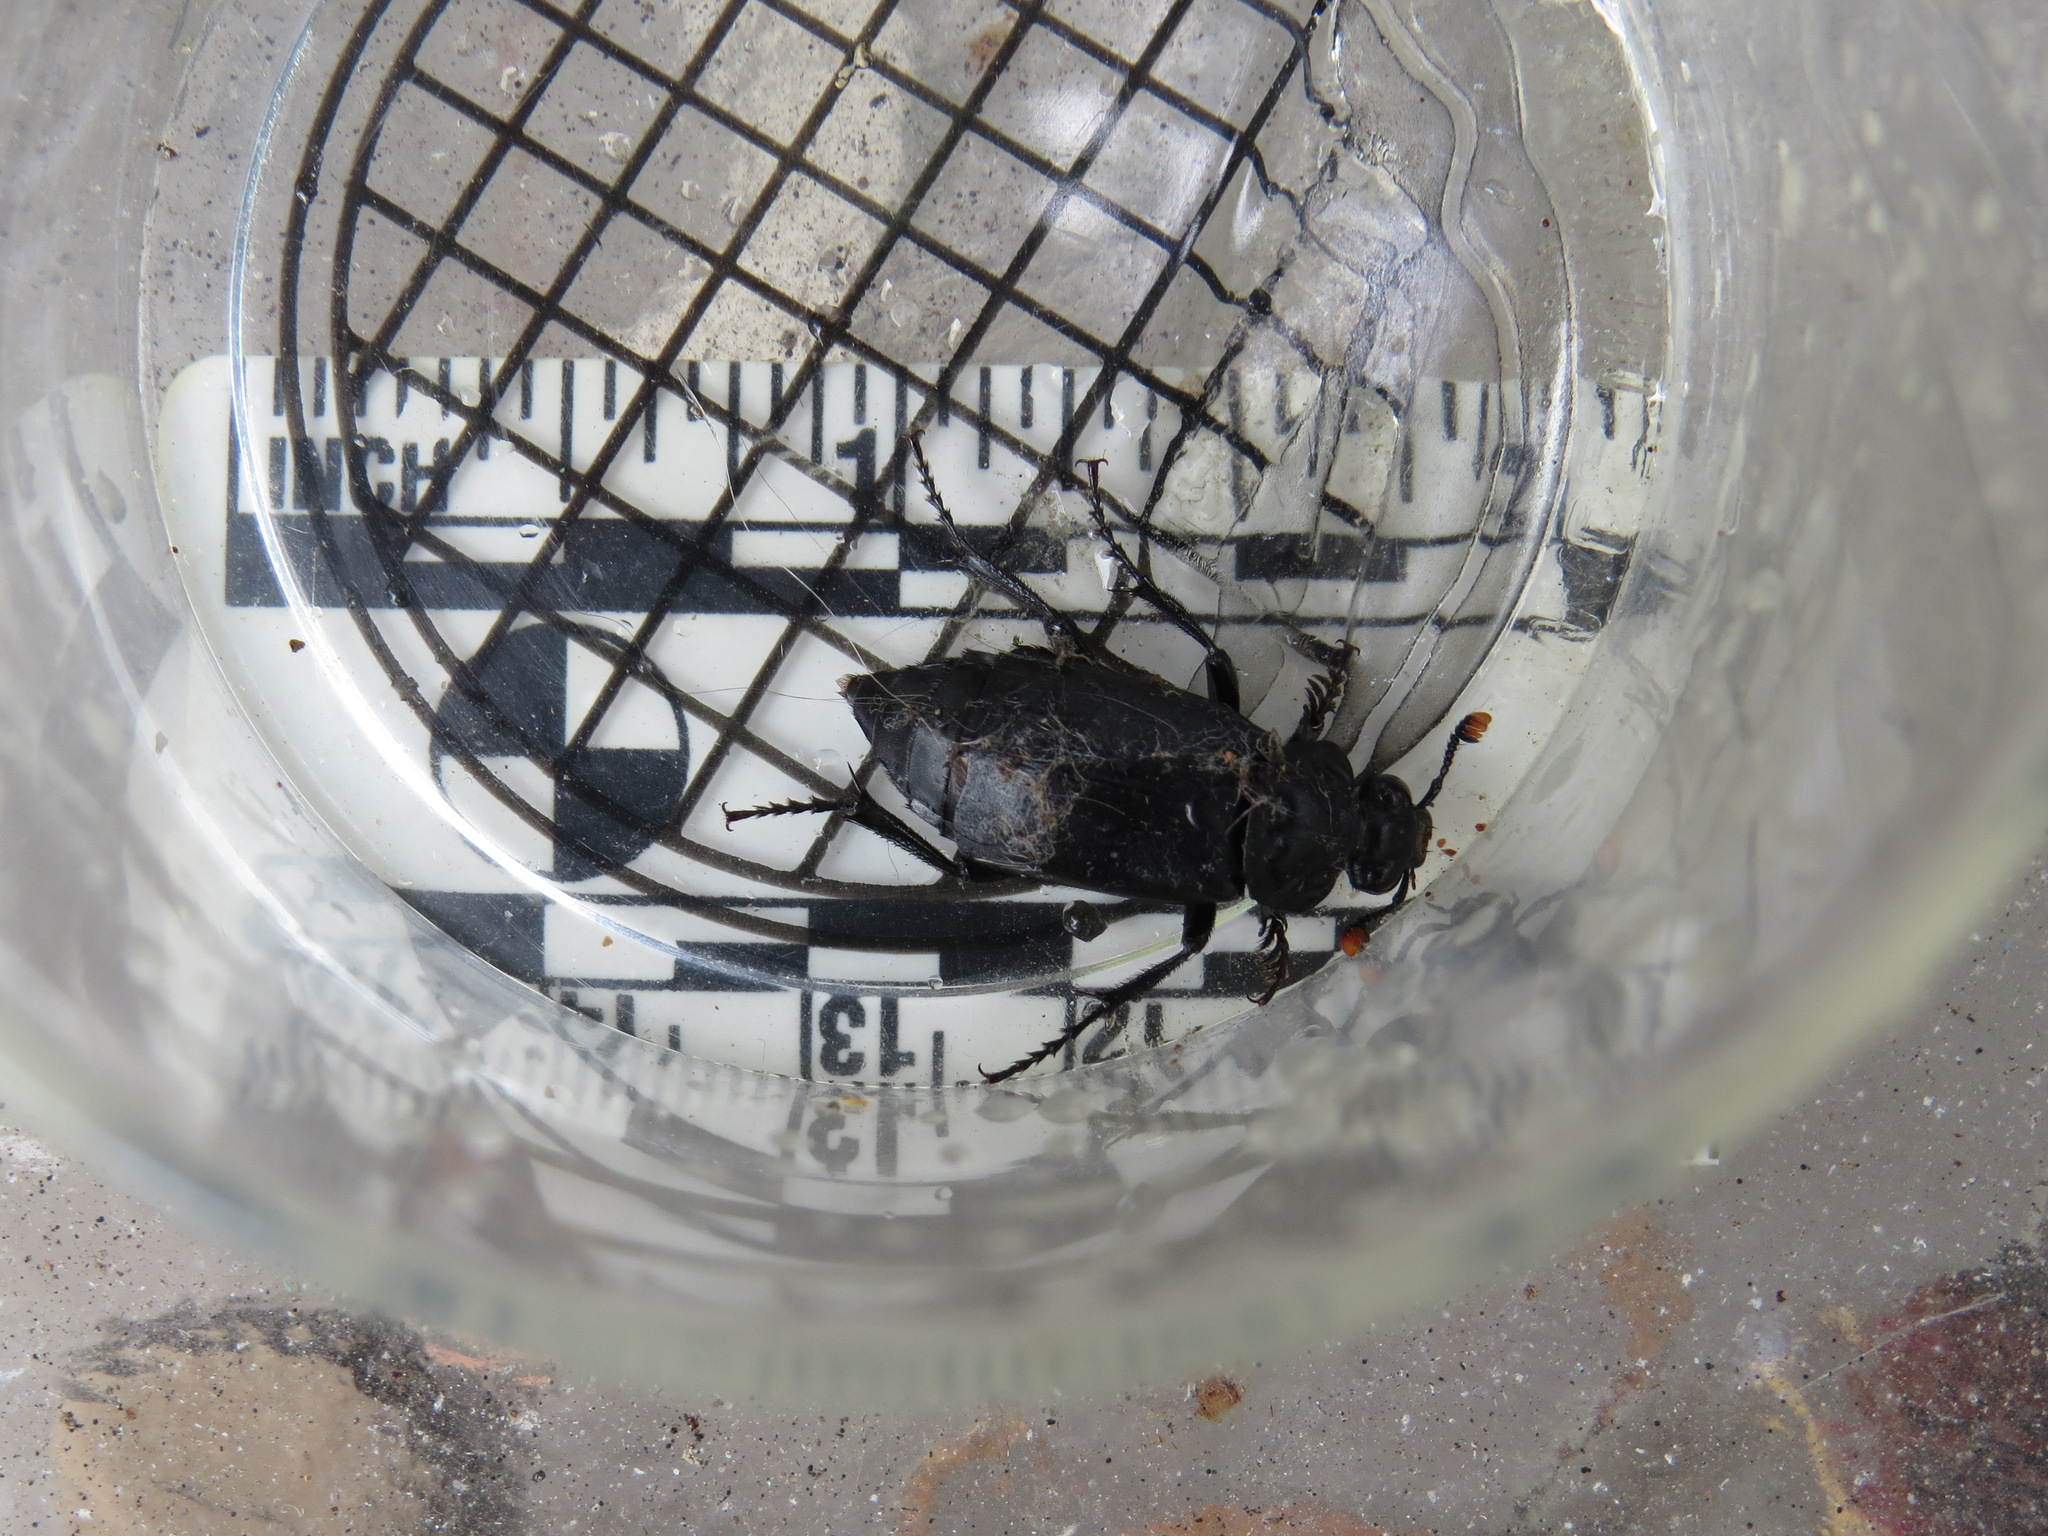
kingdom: Animalia
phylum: Arthropoda
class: Insecta
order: Coleoptera
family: Staphylinidae
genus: Nicrophorus
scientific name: Nicrophorus nigrita
